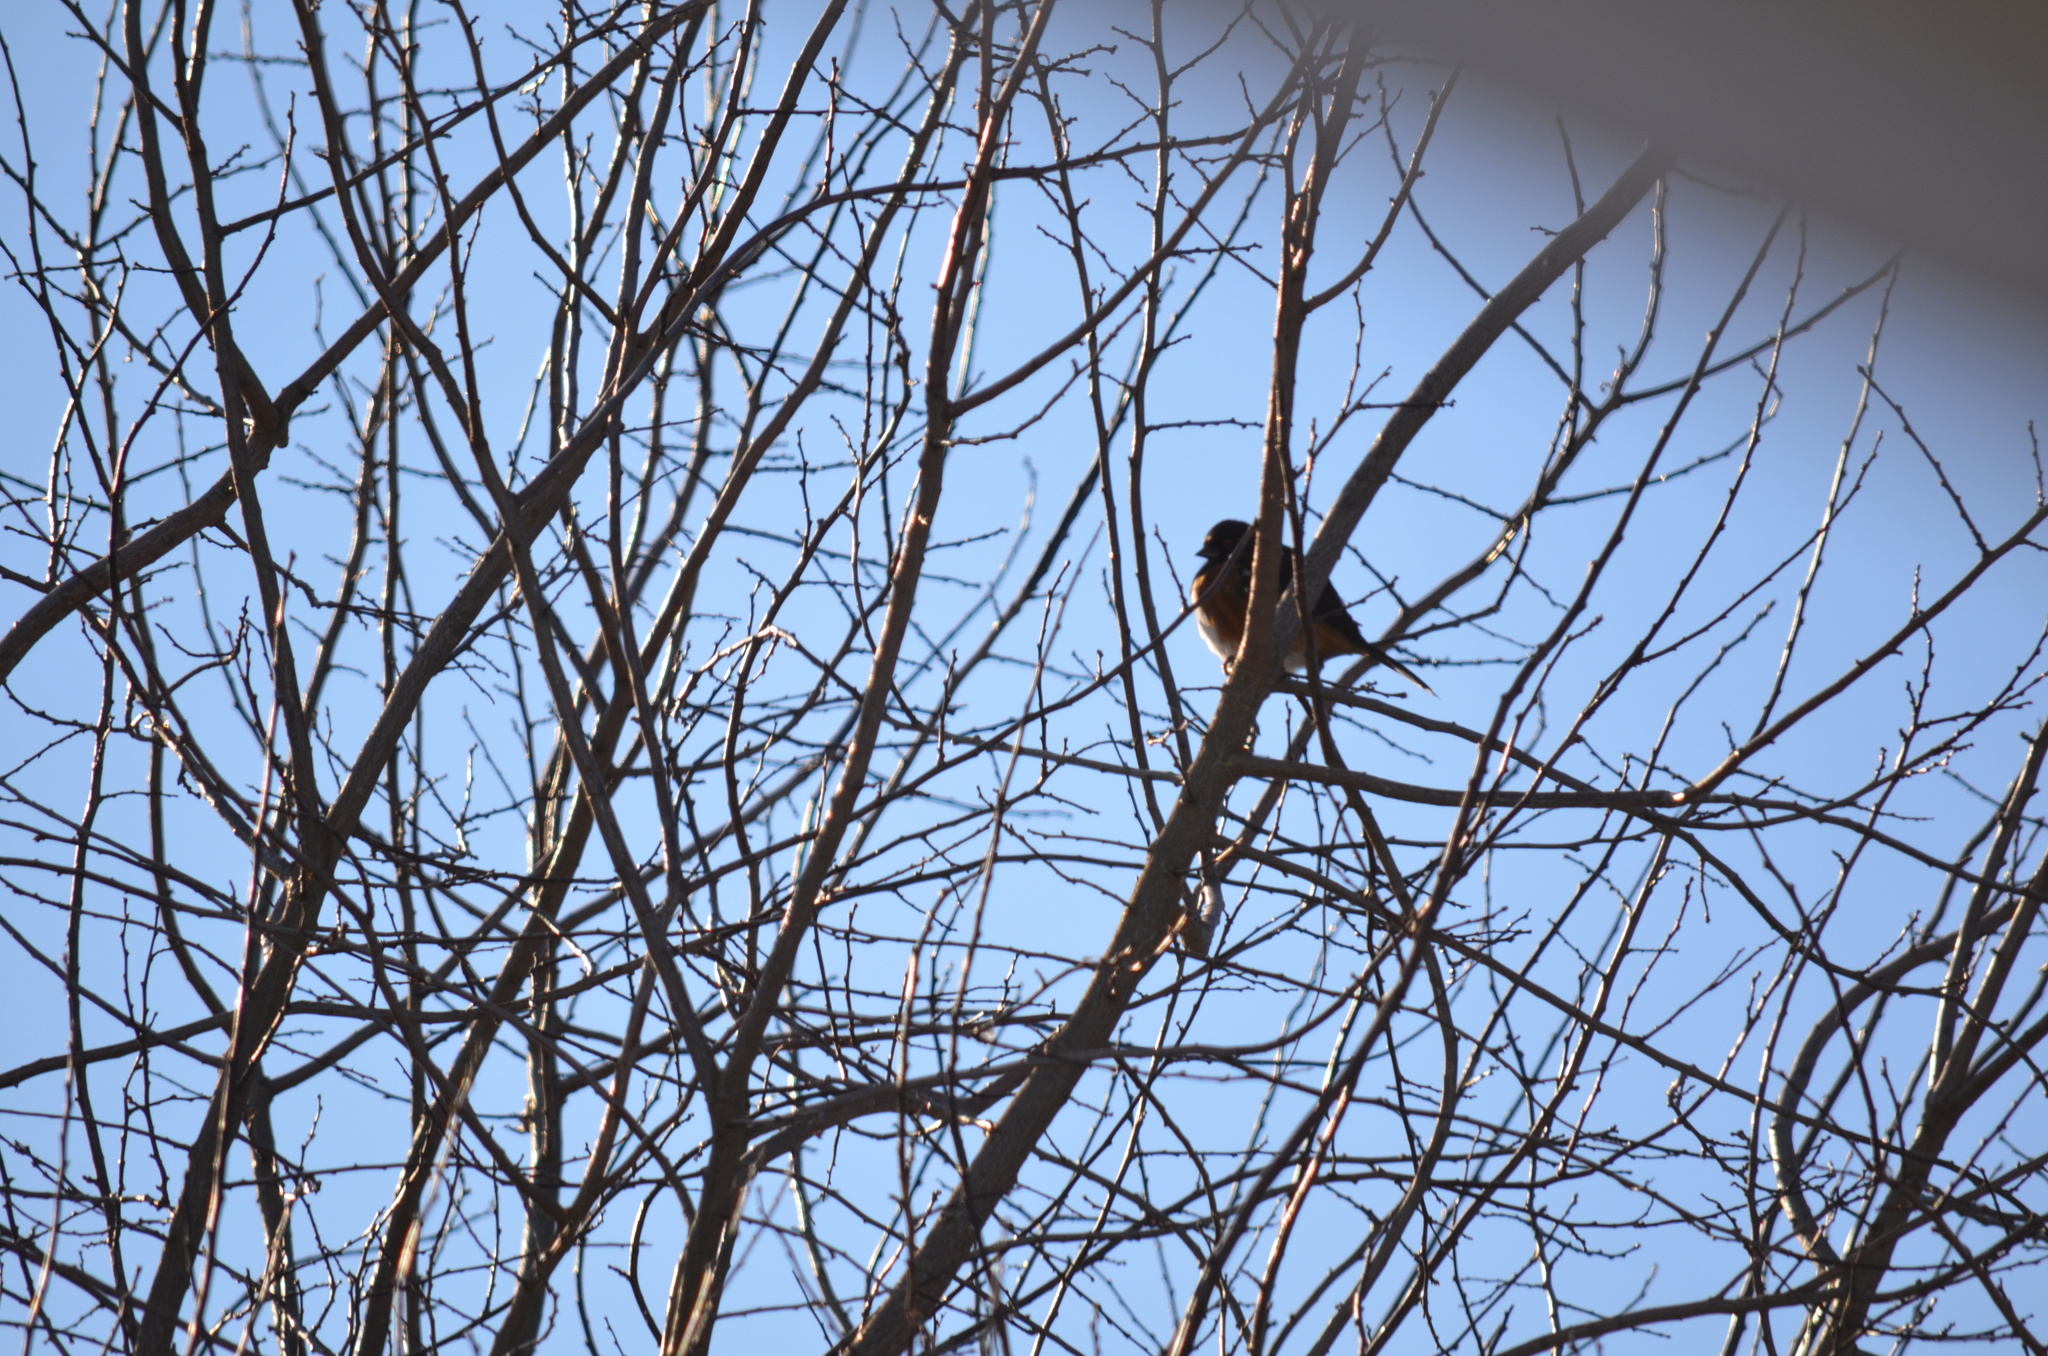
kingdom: Animalia
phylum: Chordata
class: Aves
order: Passeriformes
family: Passerellidae
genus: Pipilo
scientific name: Pipilo maculatus
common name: Spotted towhee
